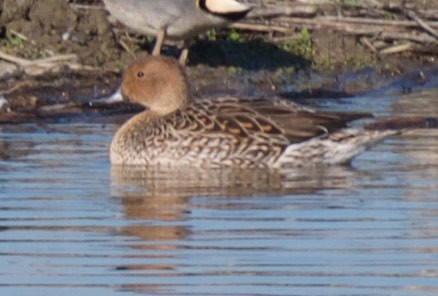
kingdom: Animalia
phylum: Chordata
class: Aves
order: Anseriformes
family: Anatidae
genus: Anas
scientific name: Anas acuta
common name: Northern pintail
